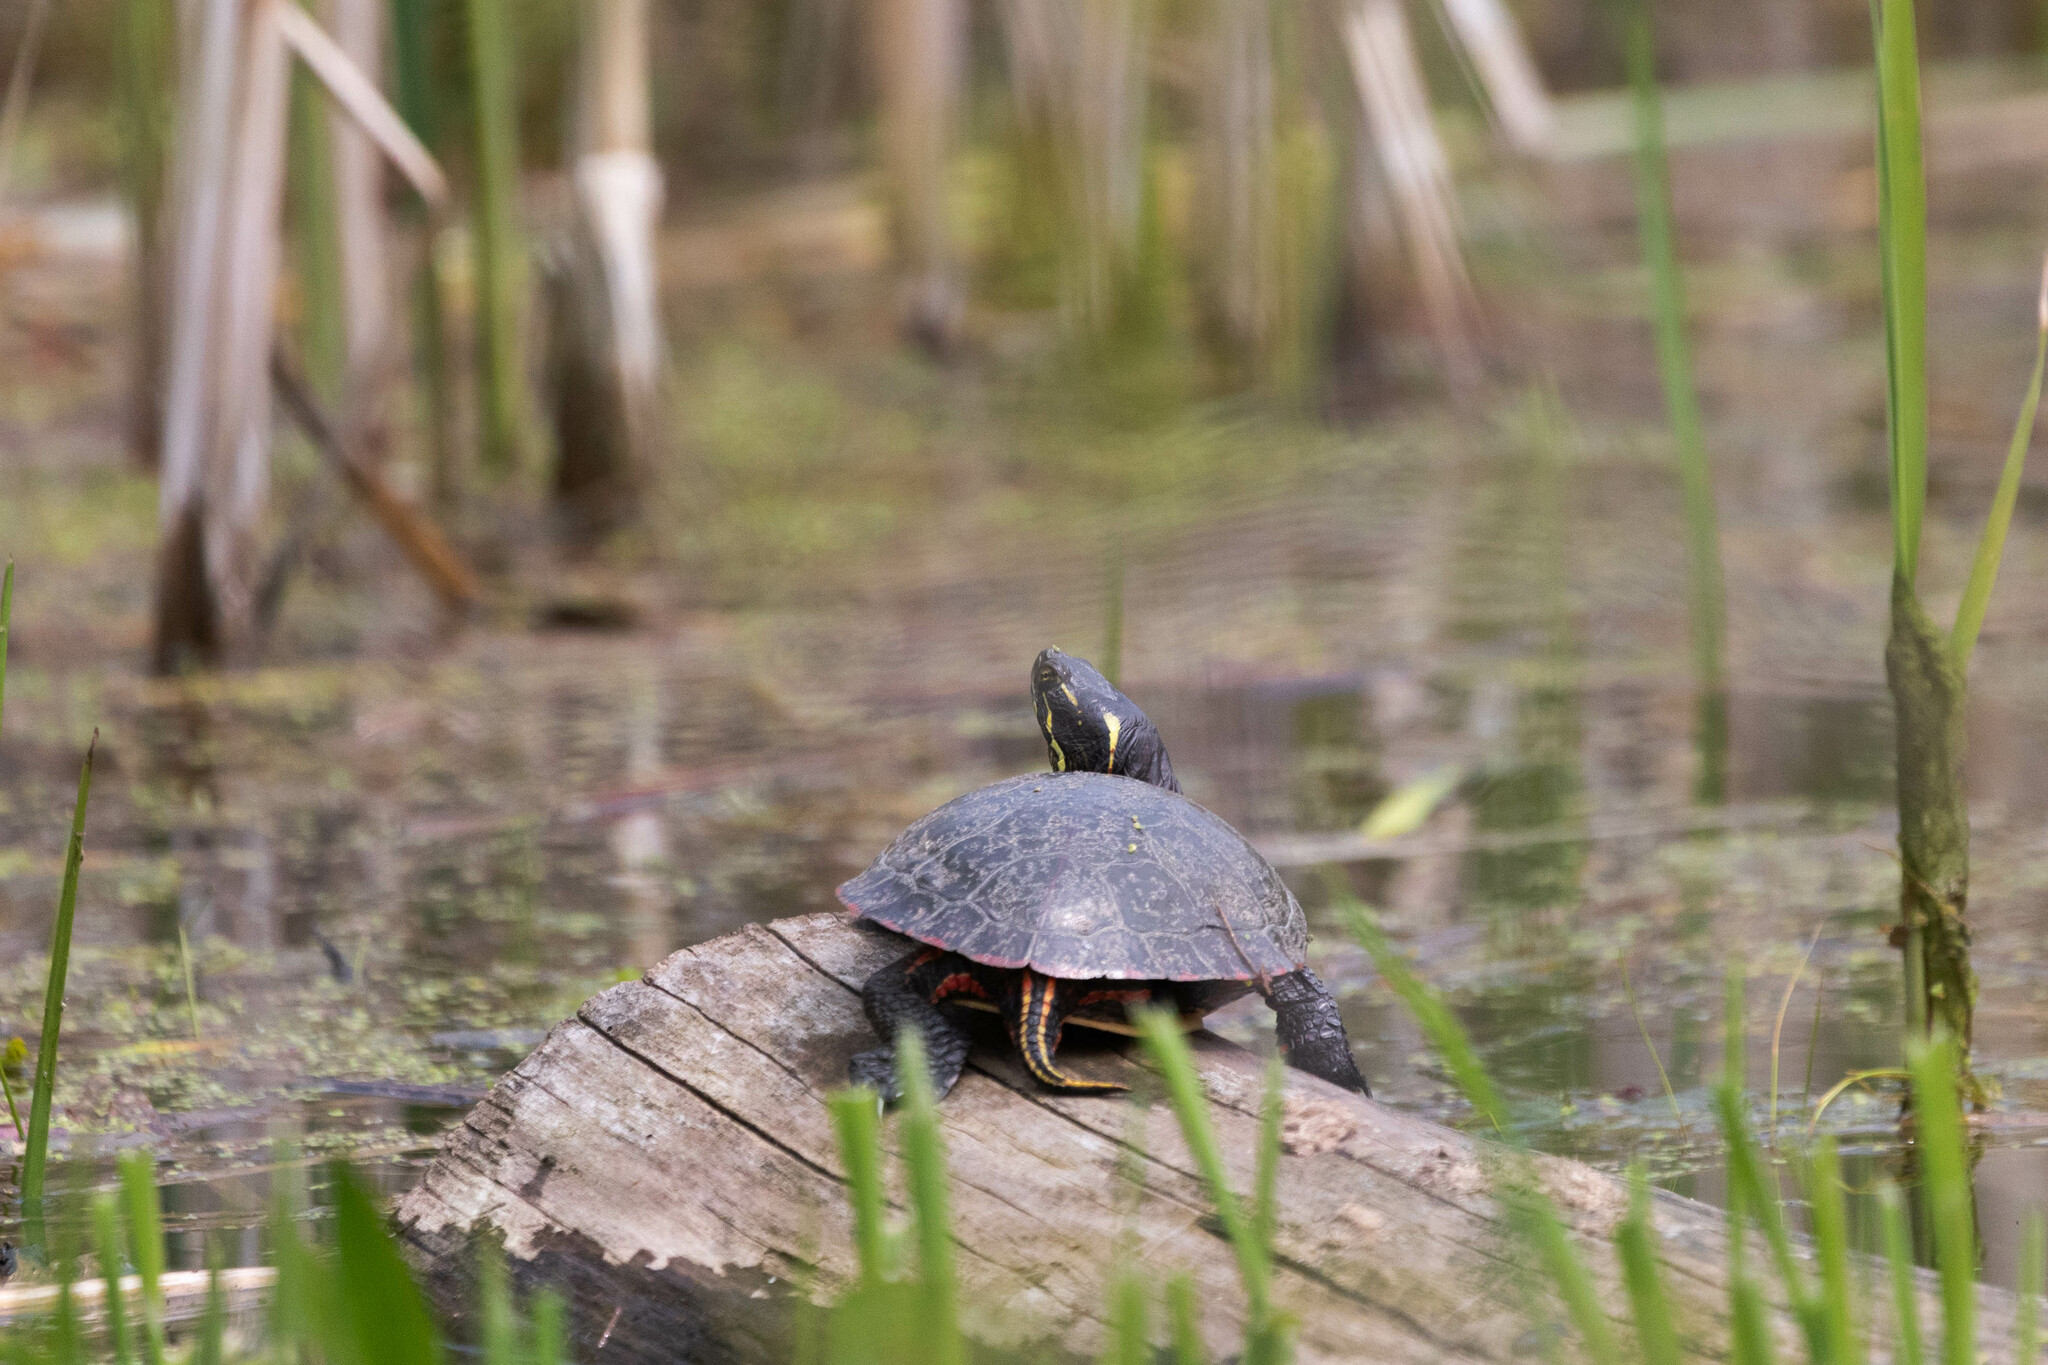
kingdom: Animalia
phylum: Chordata
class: Testudines
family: Emydidae
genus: Chrysemys
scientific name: Chrysemys picta
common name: Painted turtle
